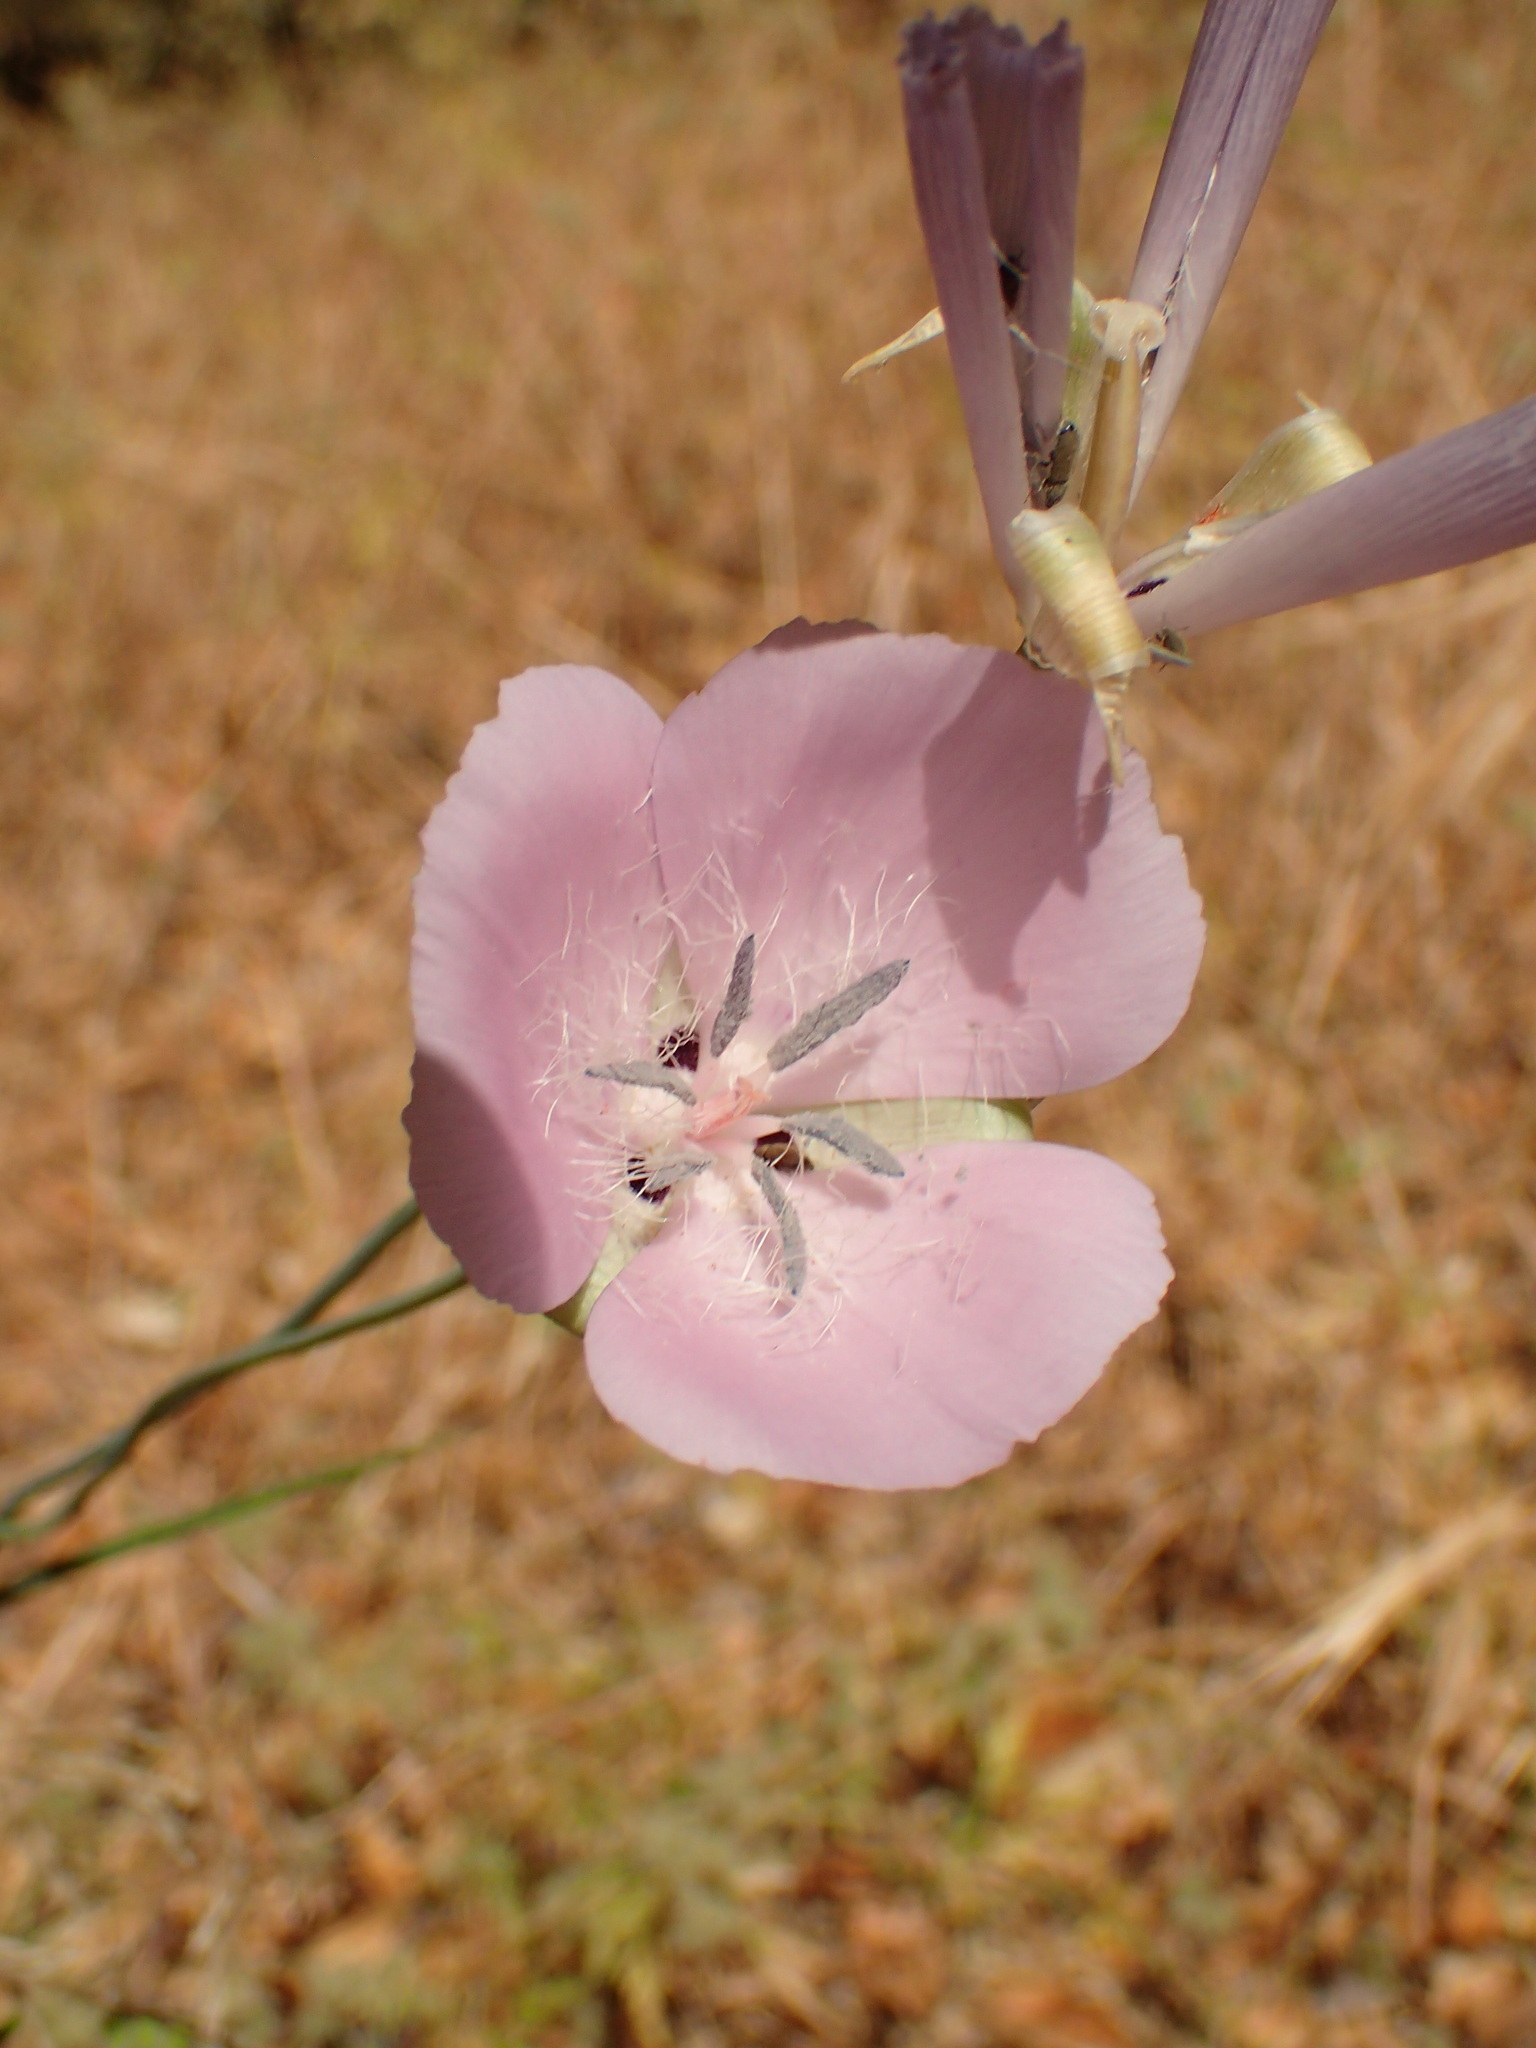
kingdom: Plantae
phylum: Tracheophyta
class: Liliopsida
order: Liliales
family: Liliaceae
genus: Calochortus
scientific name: Calochortus splendens
